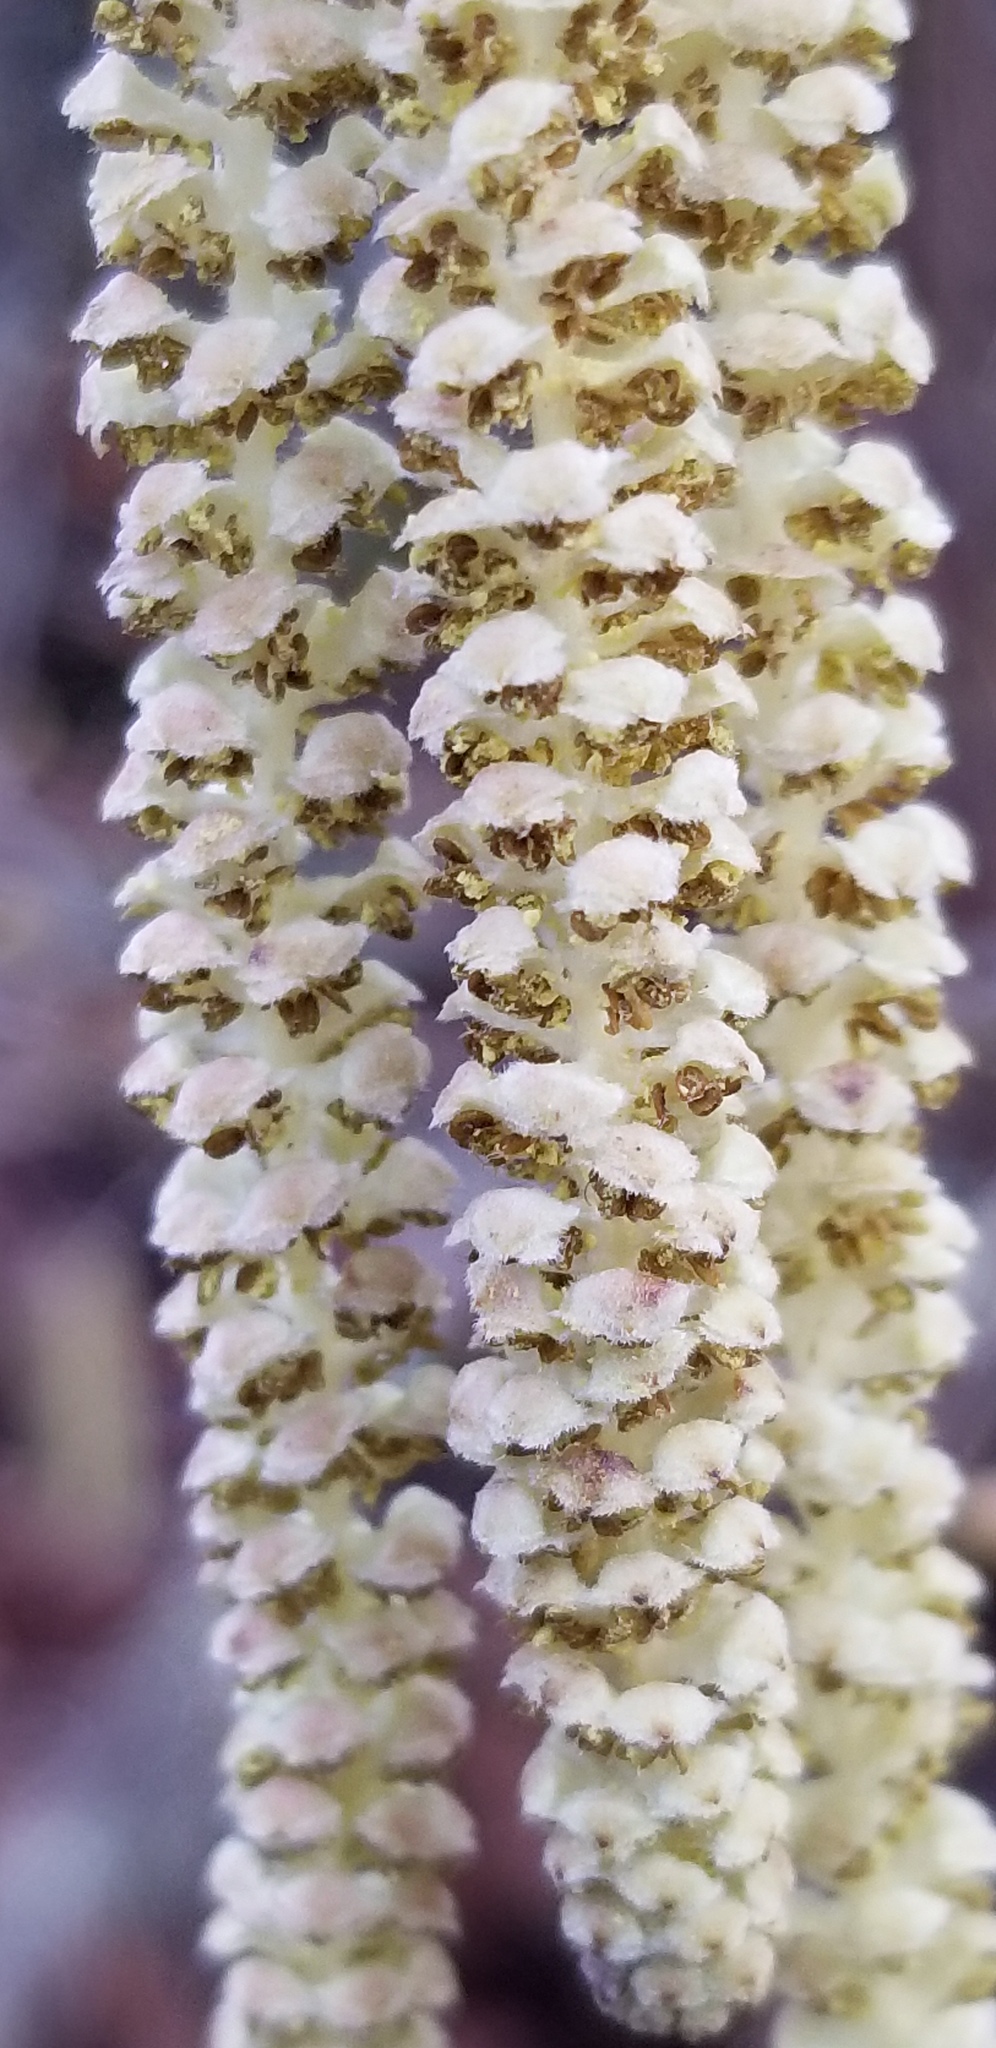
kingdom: Plantae
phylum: Tracheophyta
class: Magnoliopsida
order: Fagales
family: Betulaceae
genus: Corylus
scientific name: Corylus avellana
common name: European hazel
